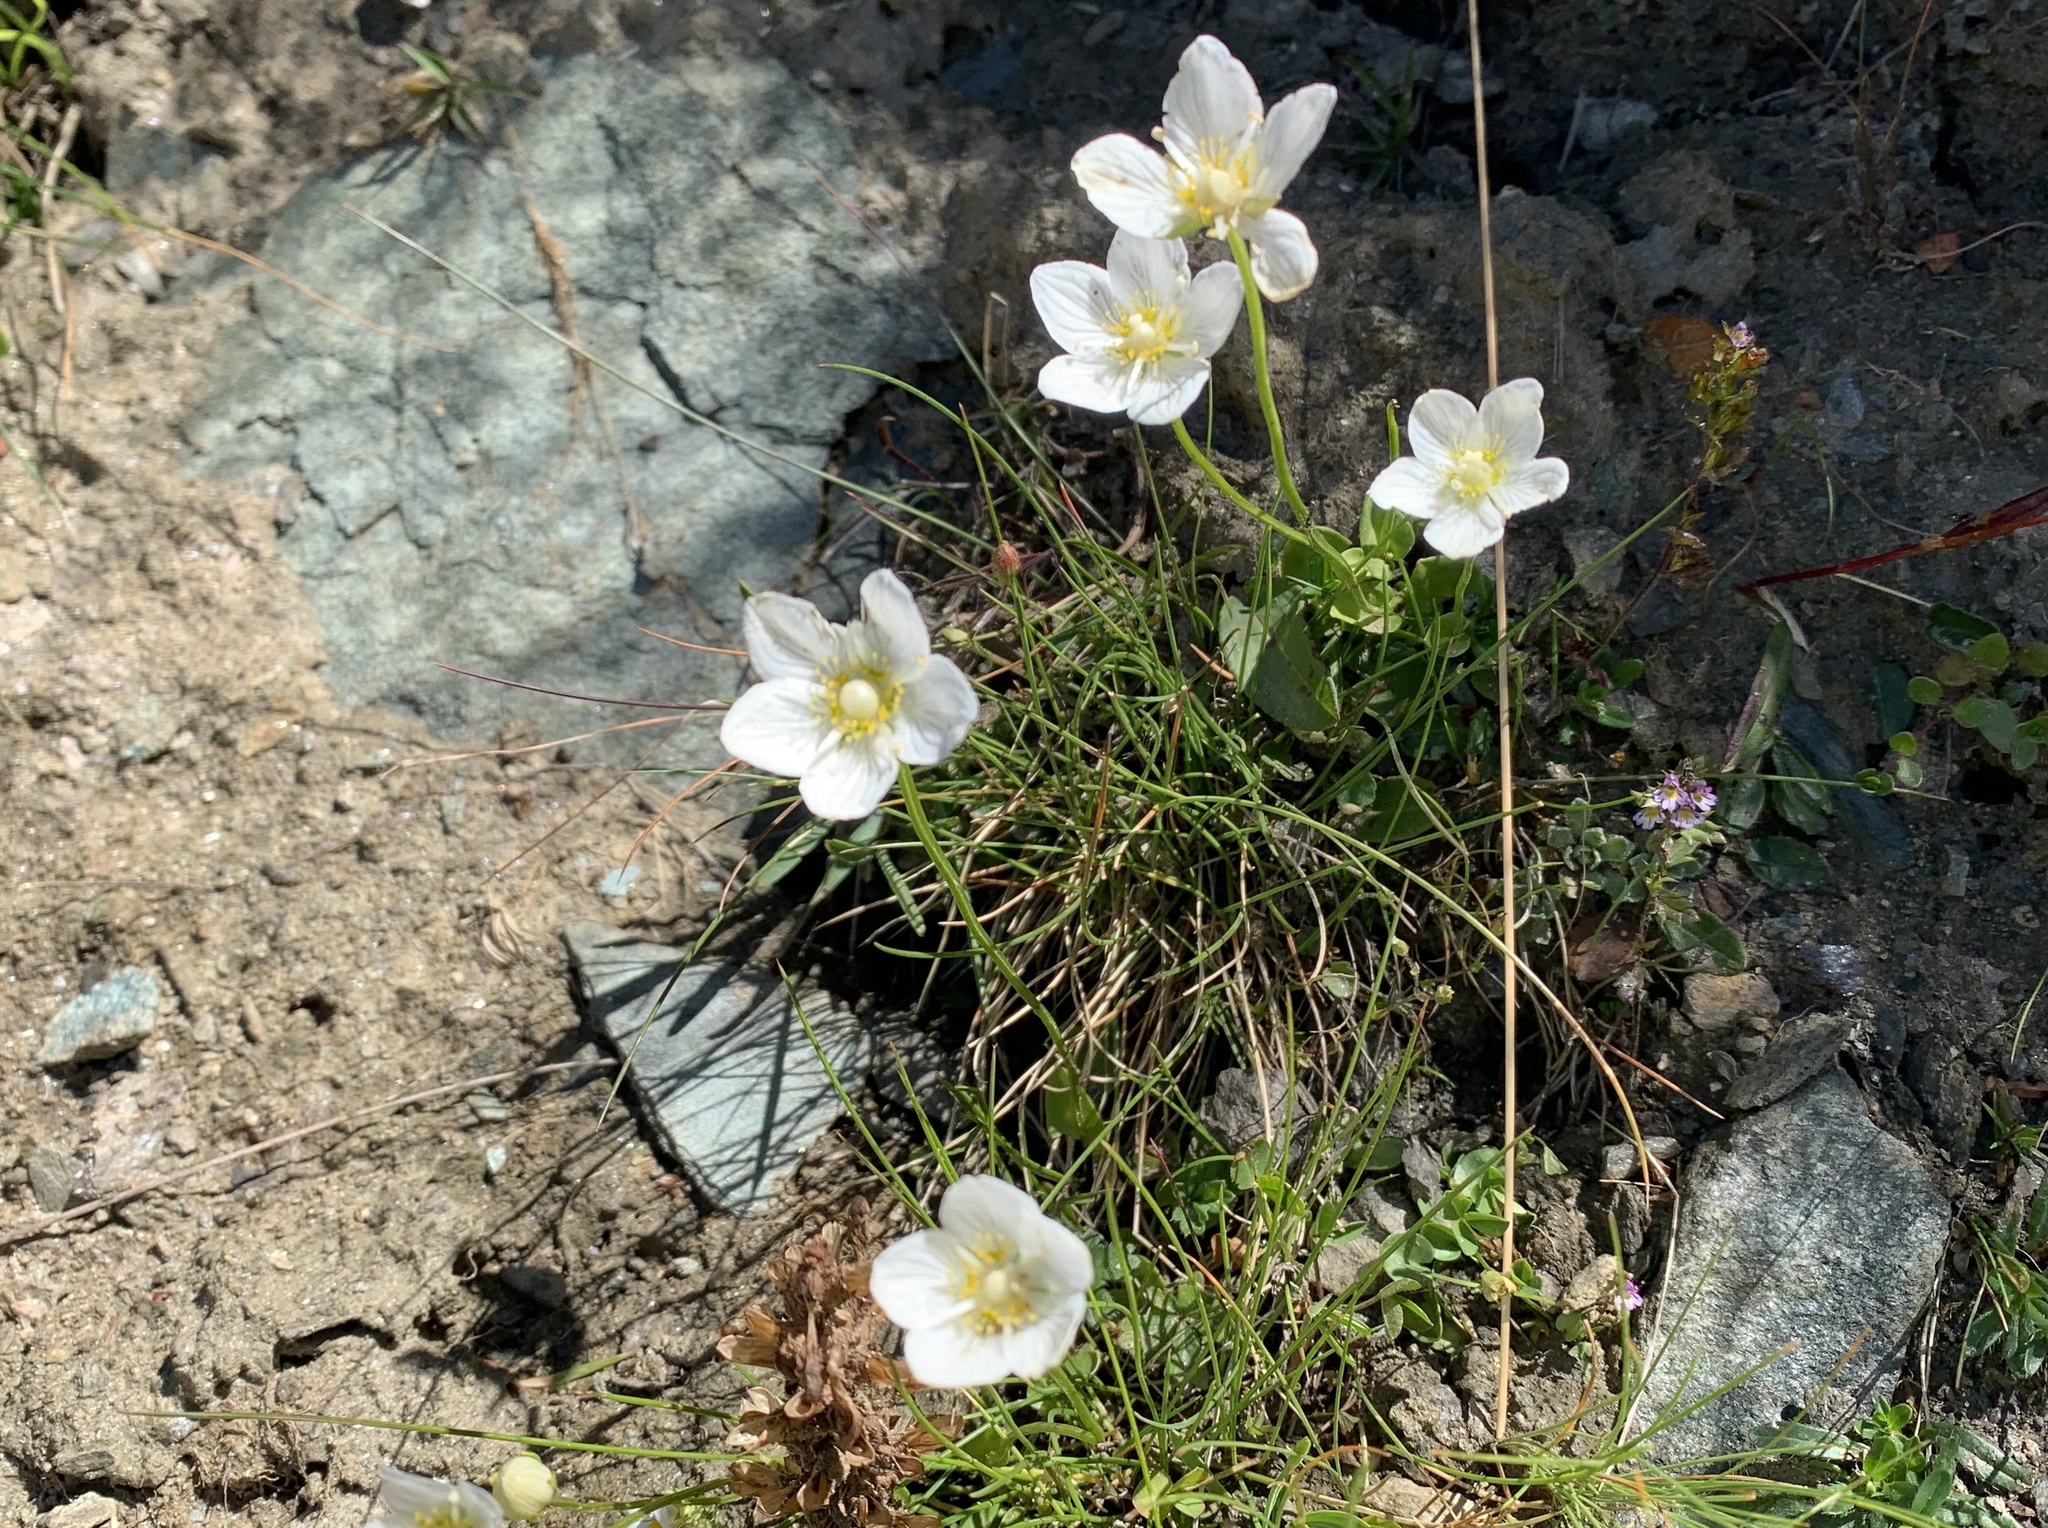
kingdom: Plantae
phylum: Tracheophyta
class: Magnoliopsida
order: Celastrales
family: Parnassiaceae
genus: Parnassia
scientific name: Parnassia palustris
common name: Grass-of-parnassus
